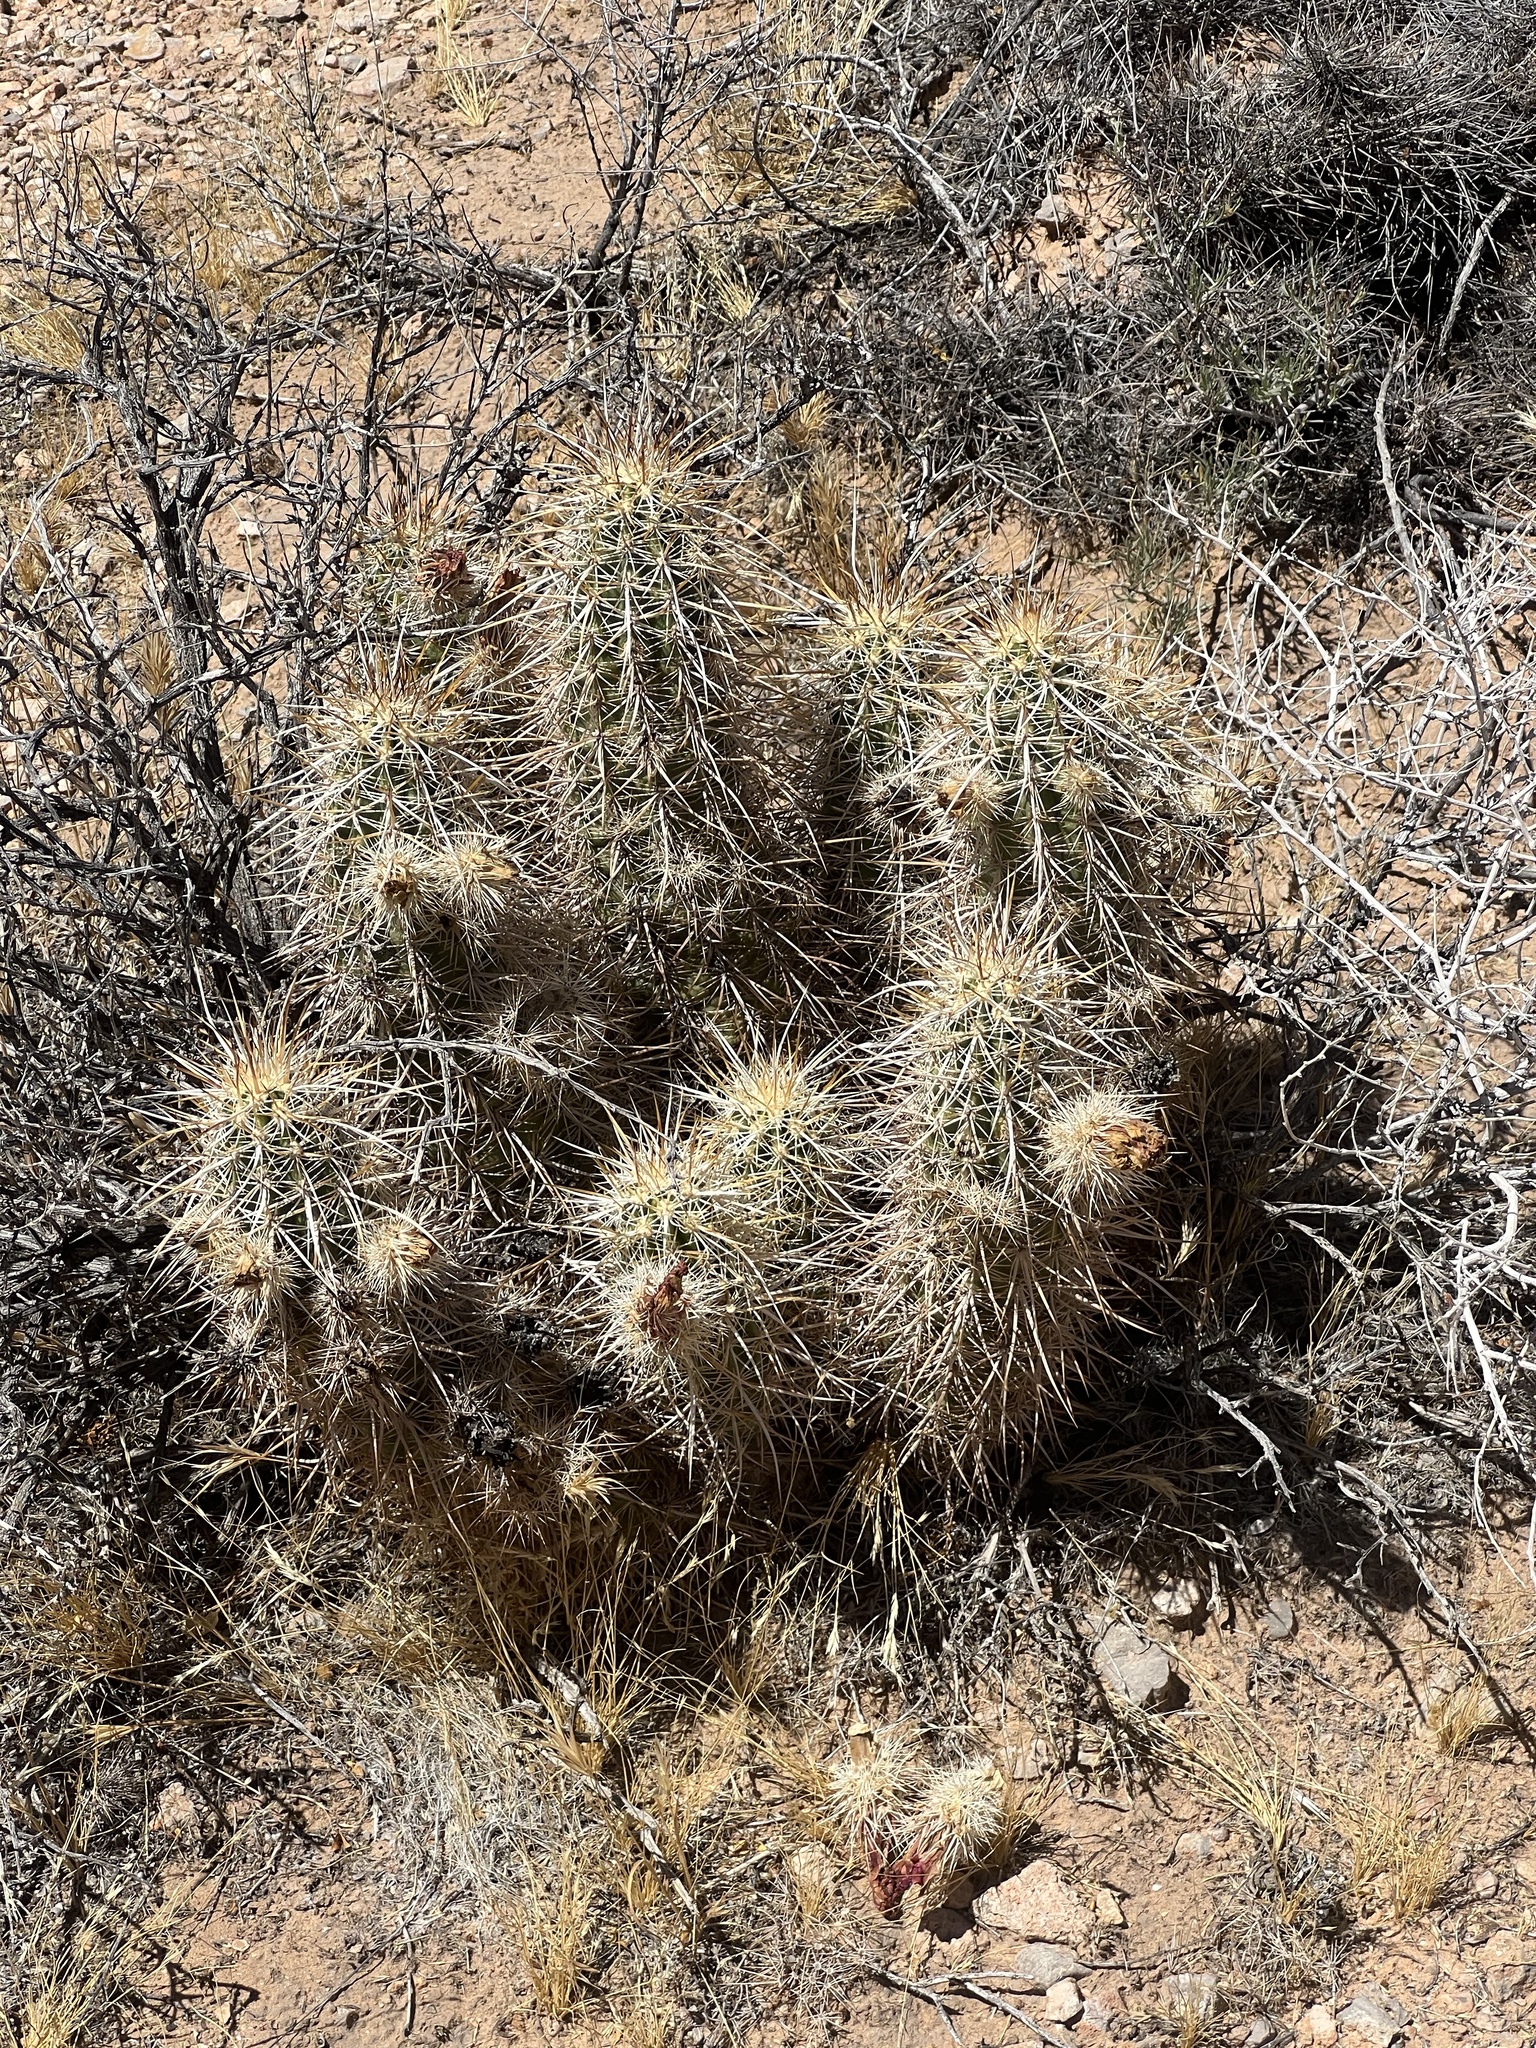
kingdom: Plantae
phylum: Tracheophyta
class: Magnoliopsida
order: Caryophyllales
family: Cactaceae
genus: Echinocereus
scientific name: Echinocereus engelmannii
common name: Engelmann's hedgehog cactus
